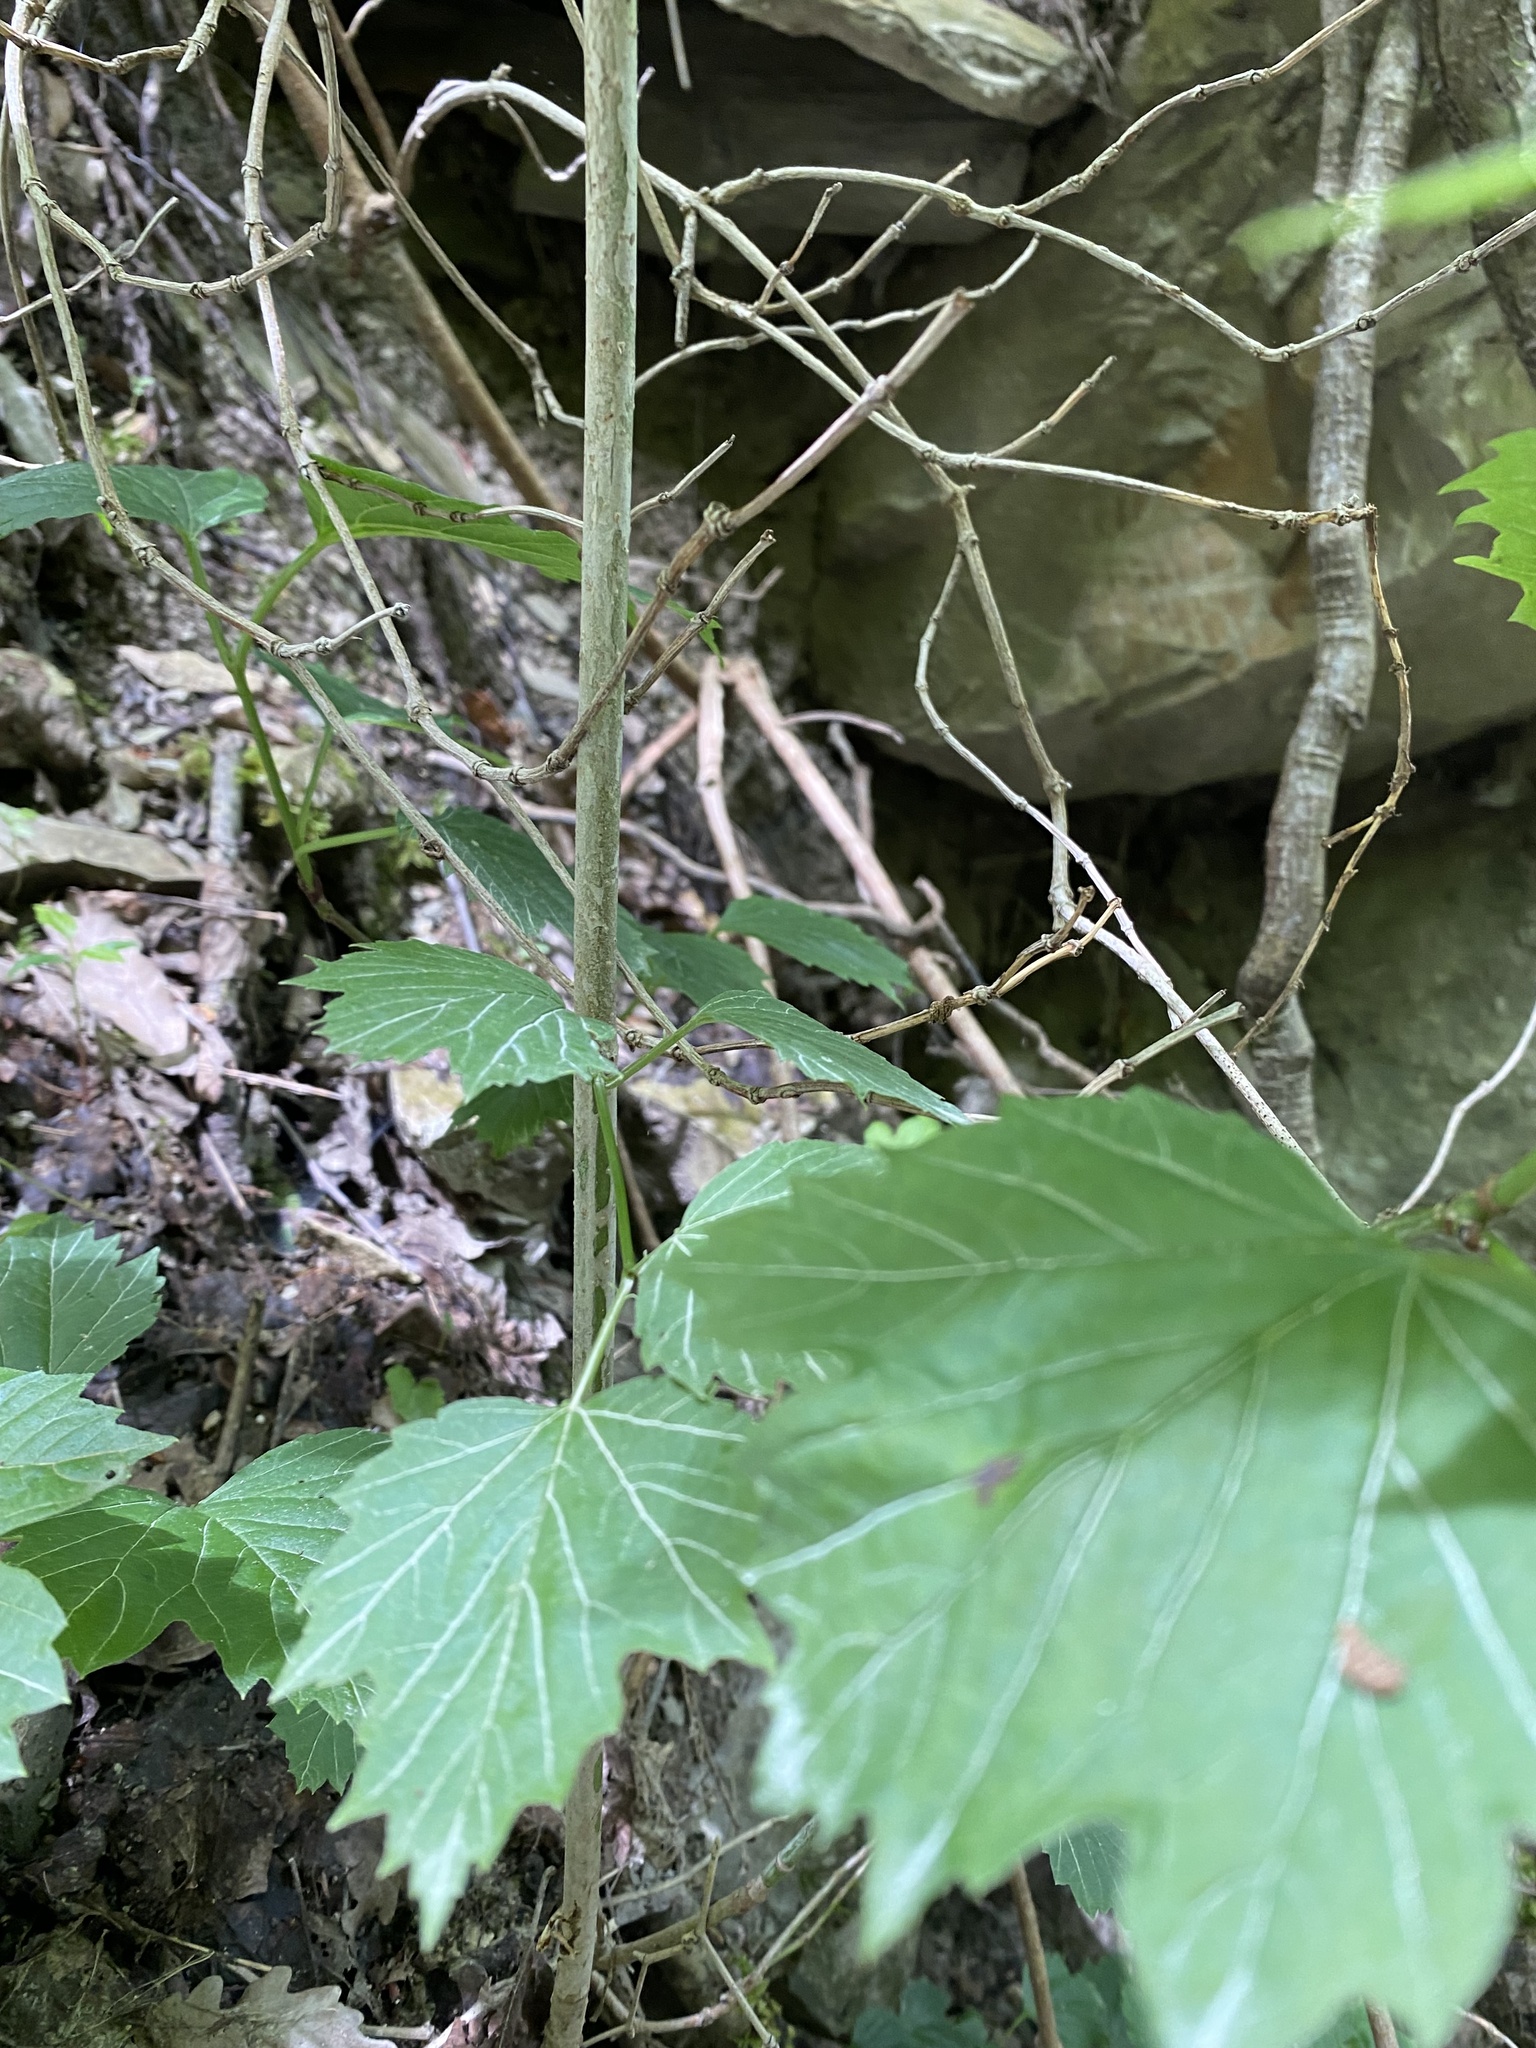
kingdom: Plantae
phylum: Tracheophyta
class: Magnoliopsida
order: Dipsacales
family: Viburnaceae
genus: Viburnum
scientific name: Viburnum opulus
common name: Guelder-rose
